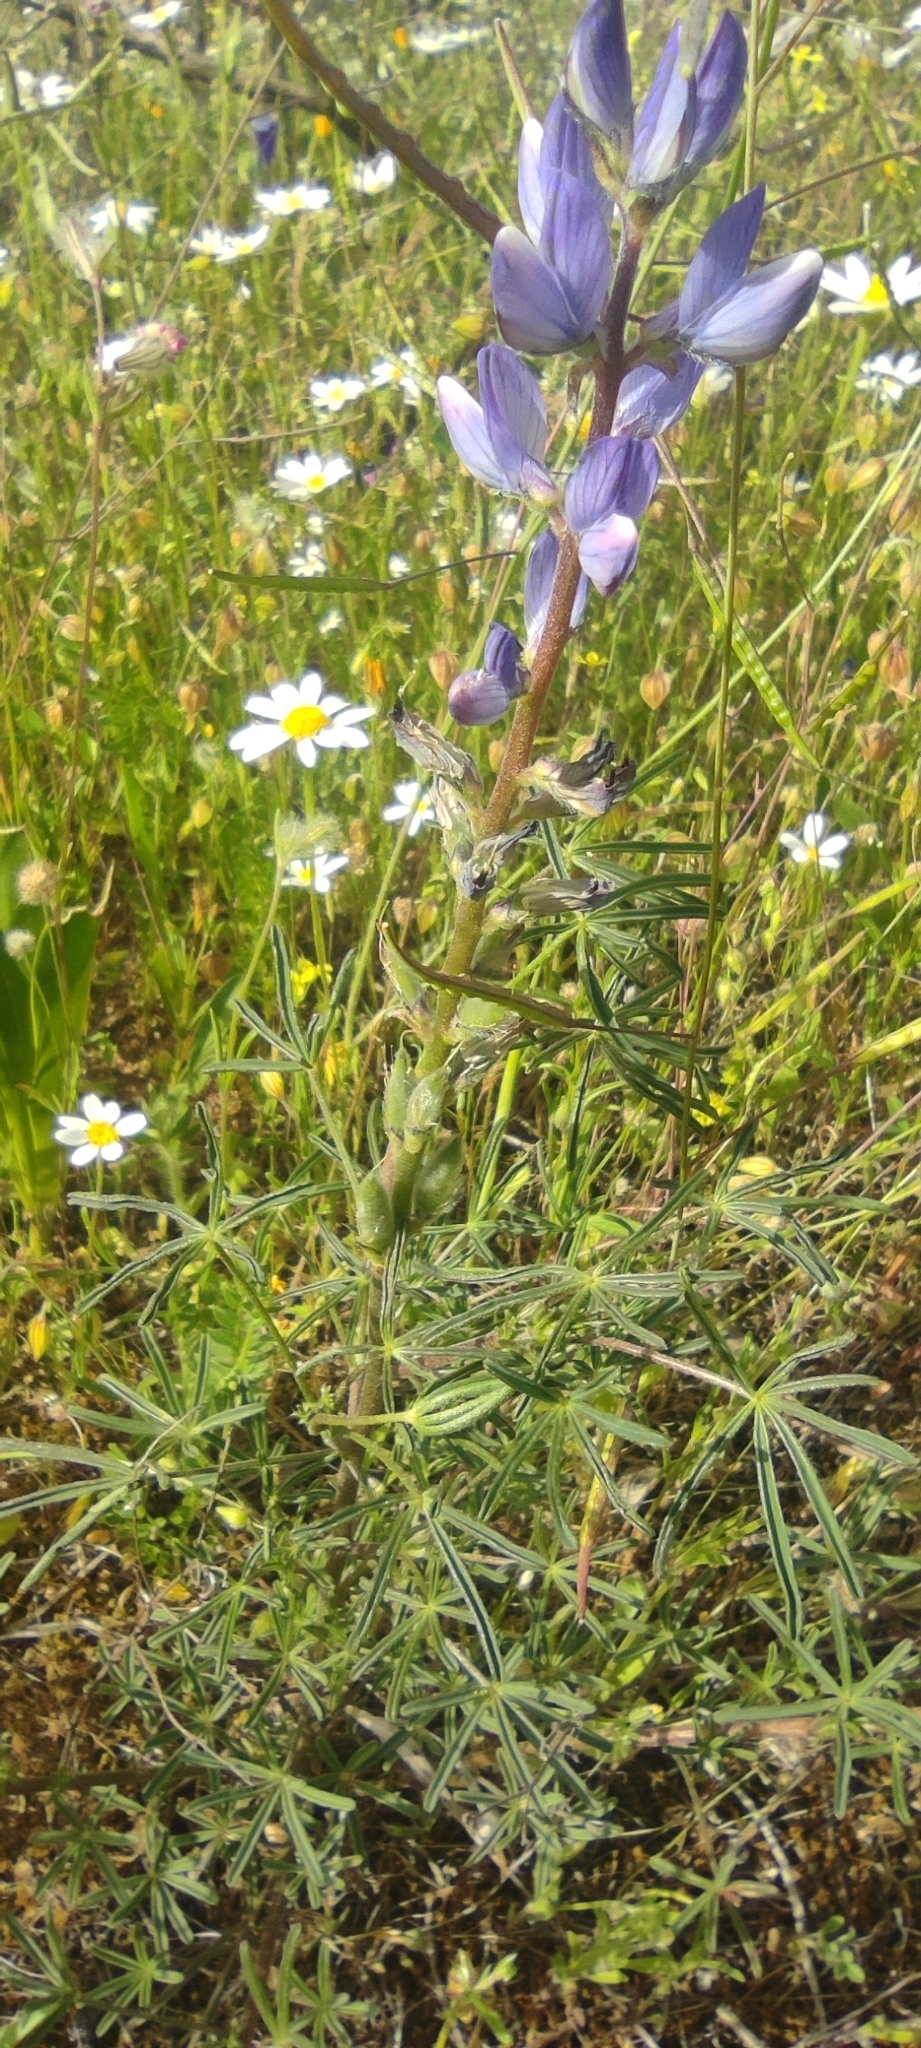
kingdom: Plantae
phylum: Tracheophyta
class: Magnoliopsida
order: Fabales
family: Fabaceae
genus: Lupinus
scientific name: Lupinus angustifolius
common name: Narrow-leaved lupin
